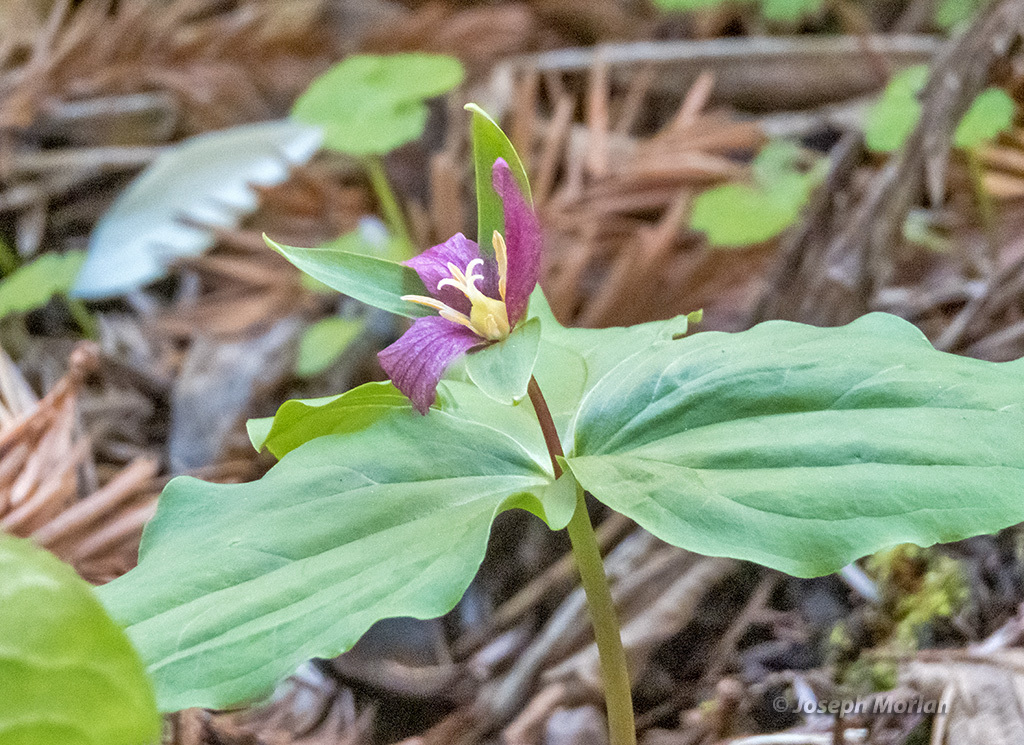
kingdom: Plantae
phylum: Tracheophyta
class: Liliopsida
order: Liliales
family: Melanthiaceae
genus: Trillium
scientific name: Trillium ovatum
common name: Pacific trillium
